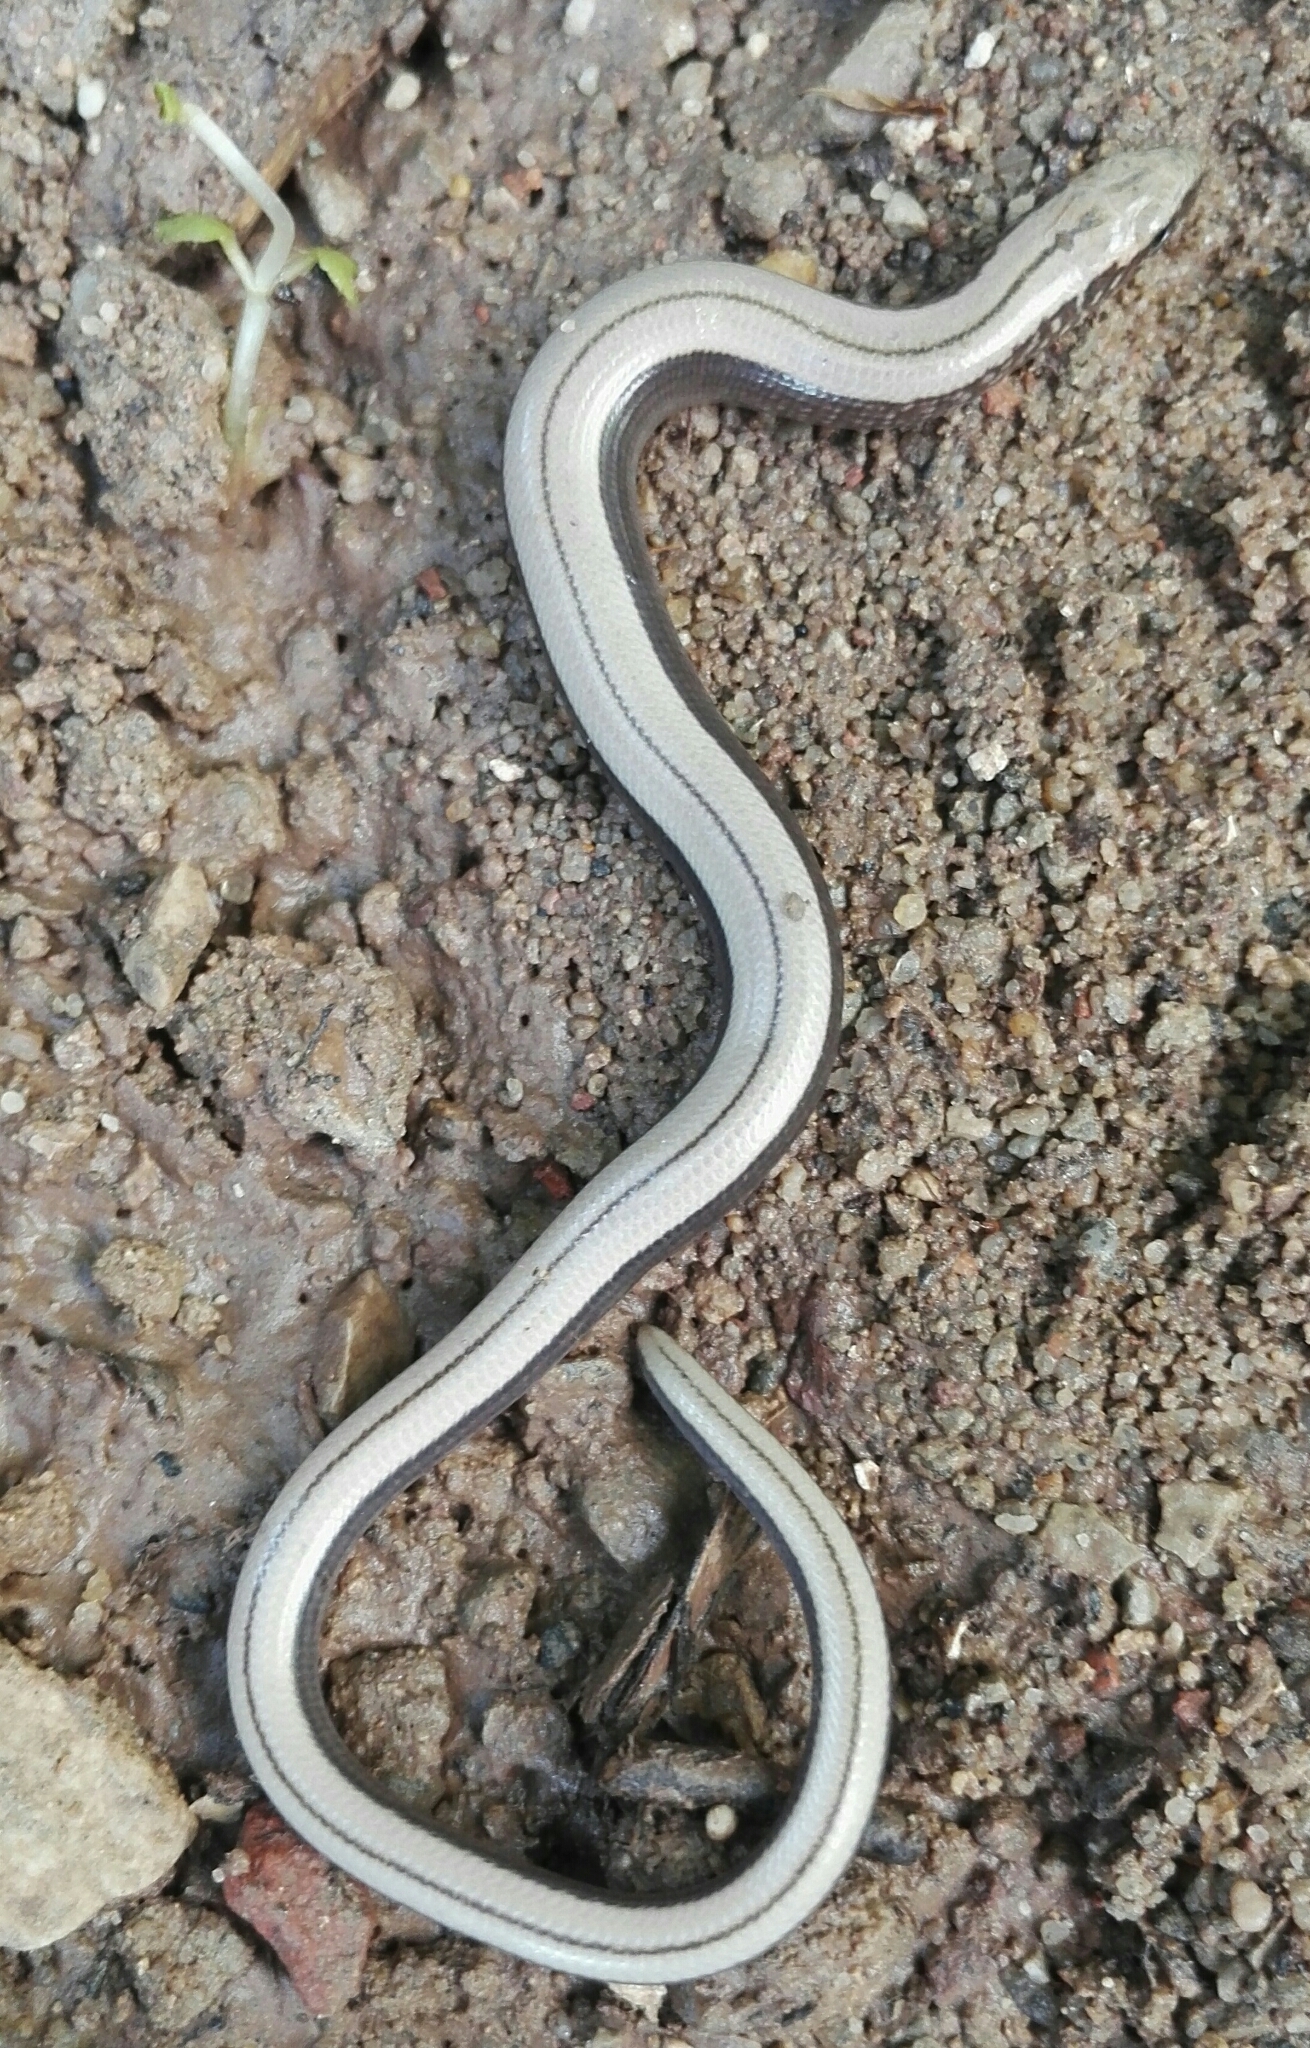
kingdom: Animalia
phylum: Chordata
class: Squamata
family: Anguidae
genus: Anguis
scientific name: Anguis fragilis
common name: Slow worm
